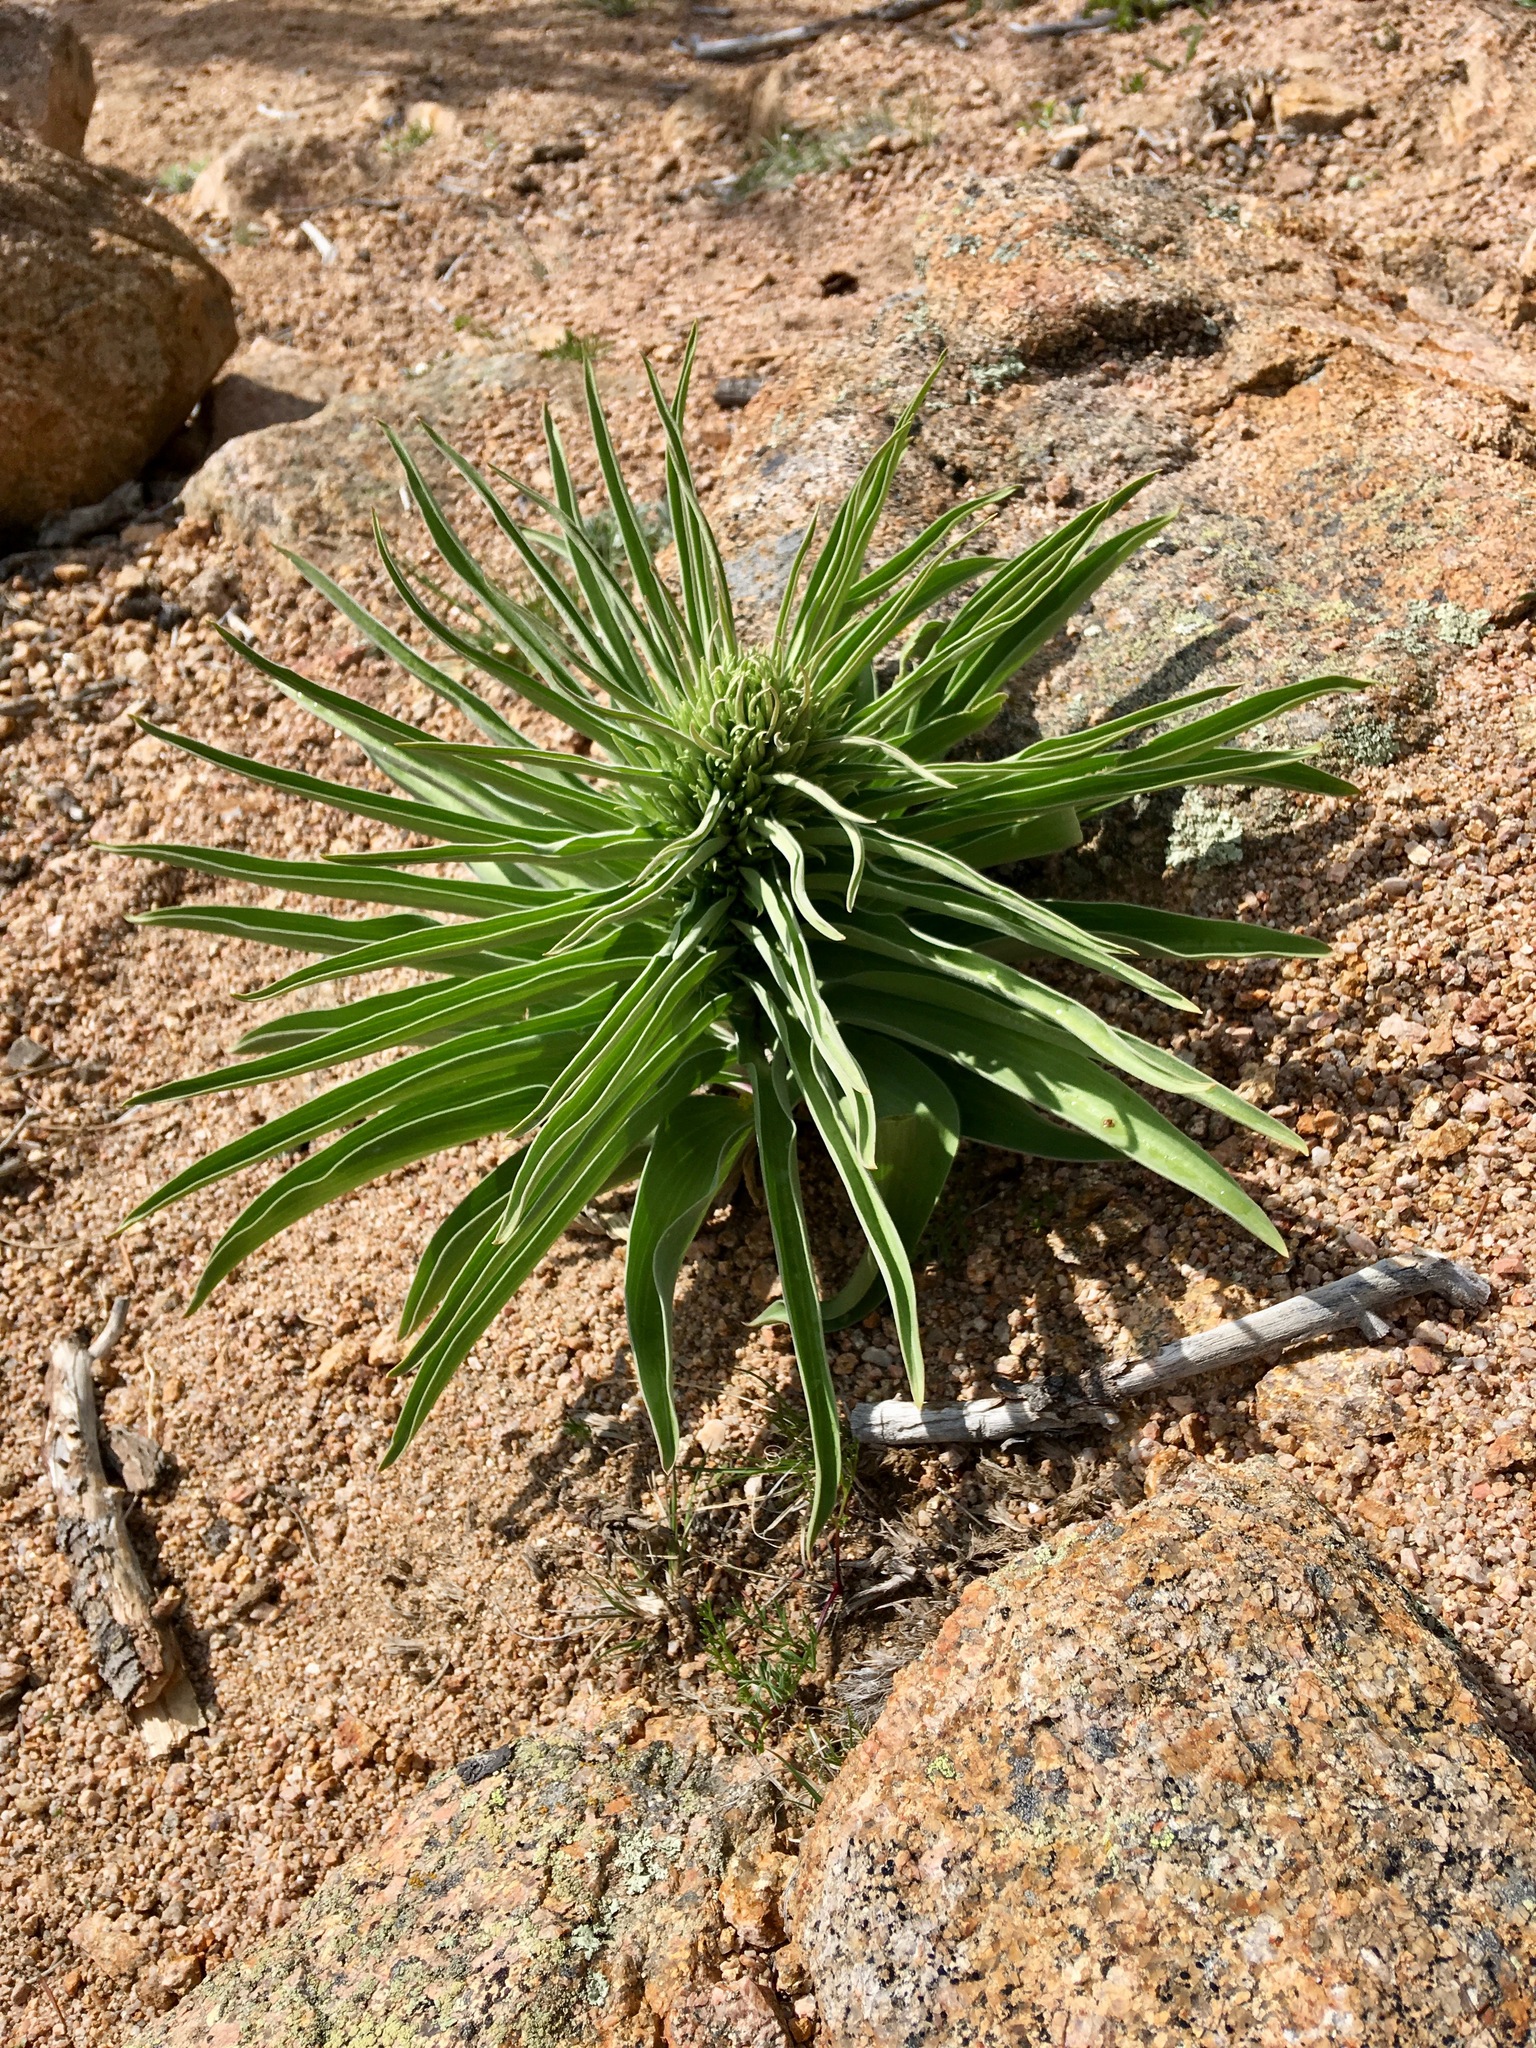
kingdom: Plantae
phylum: Tracheophyta
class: Magnoliopsida
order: Gentianales
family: Gentianaceae
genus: Frasera
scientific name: Frasera speciosa
